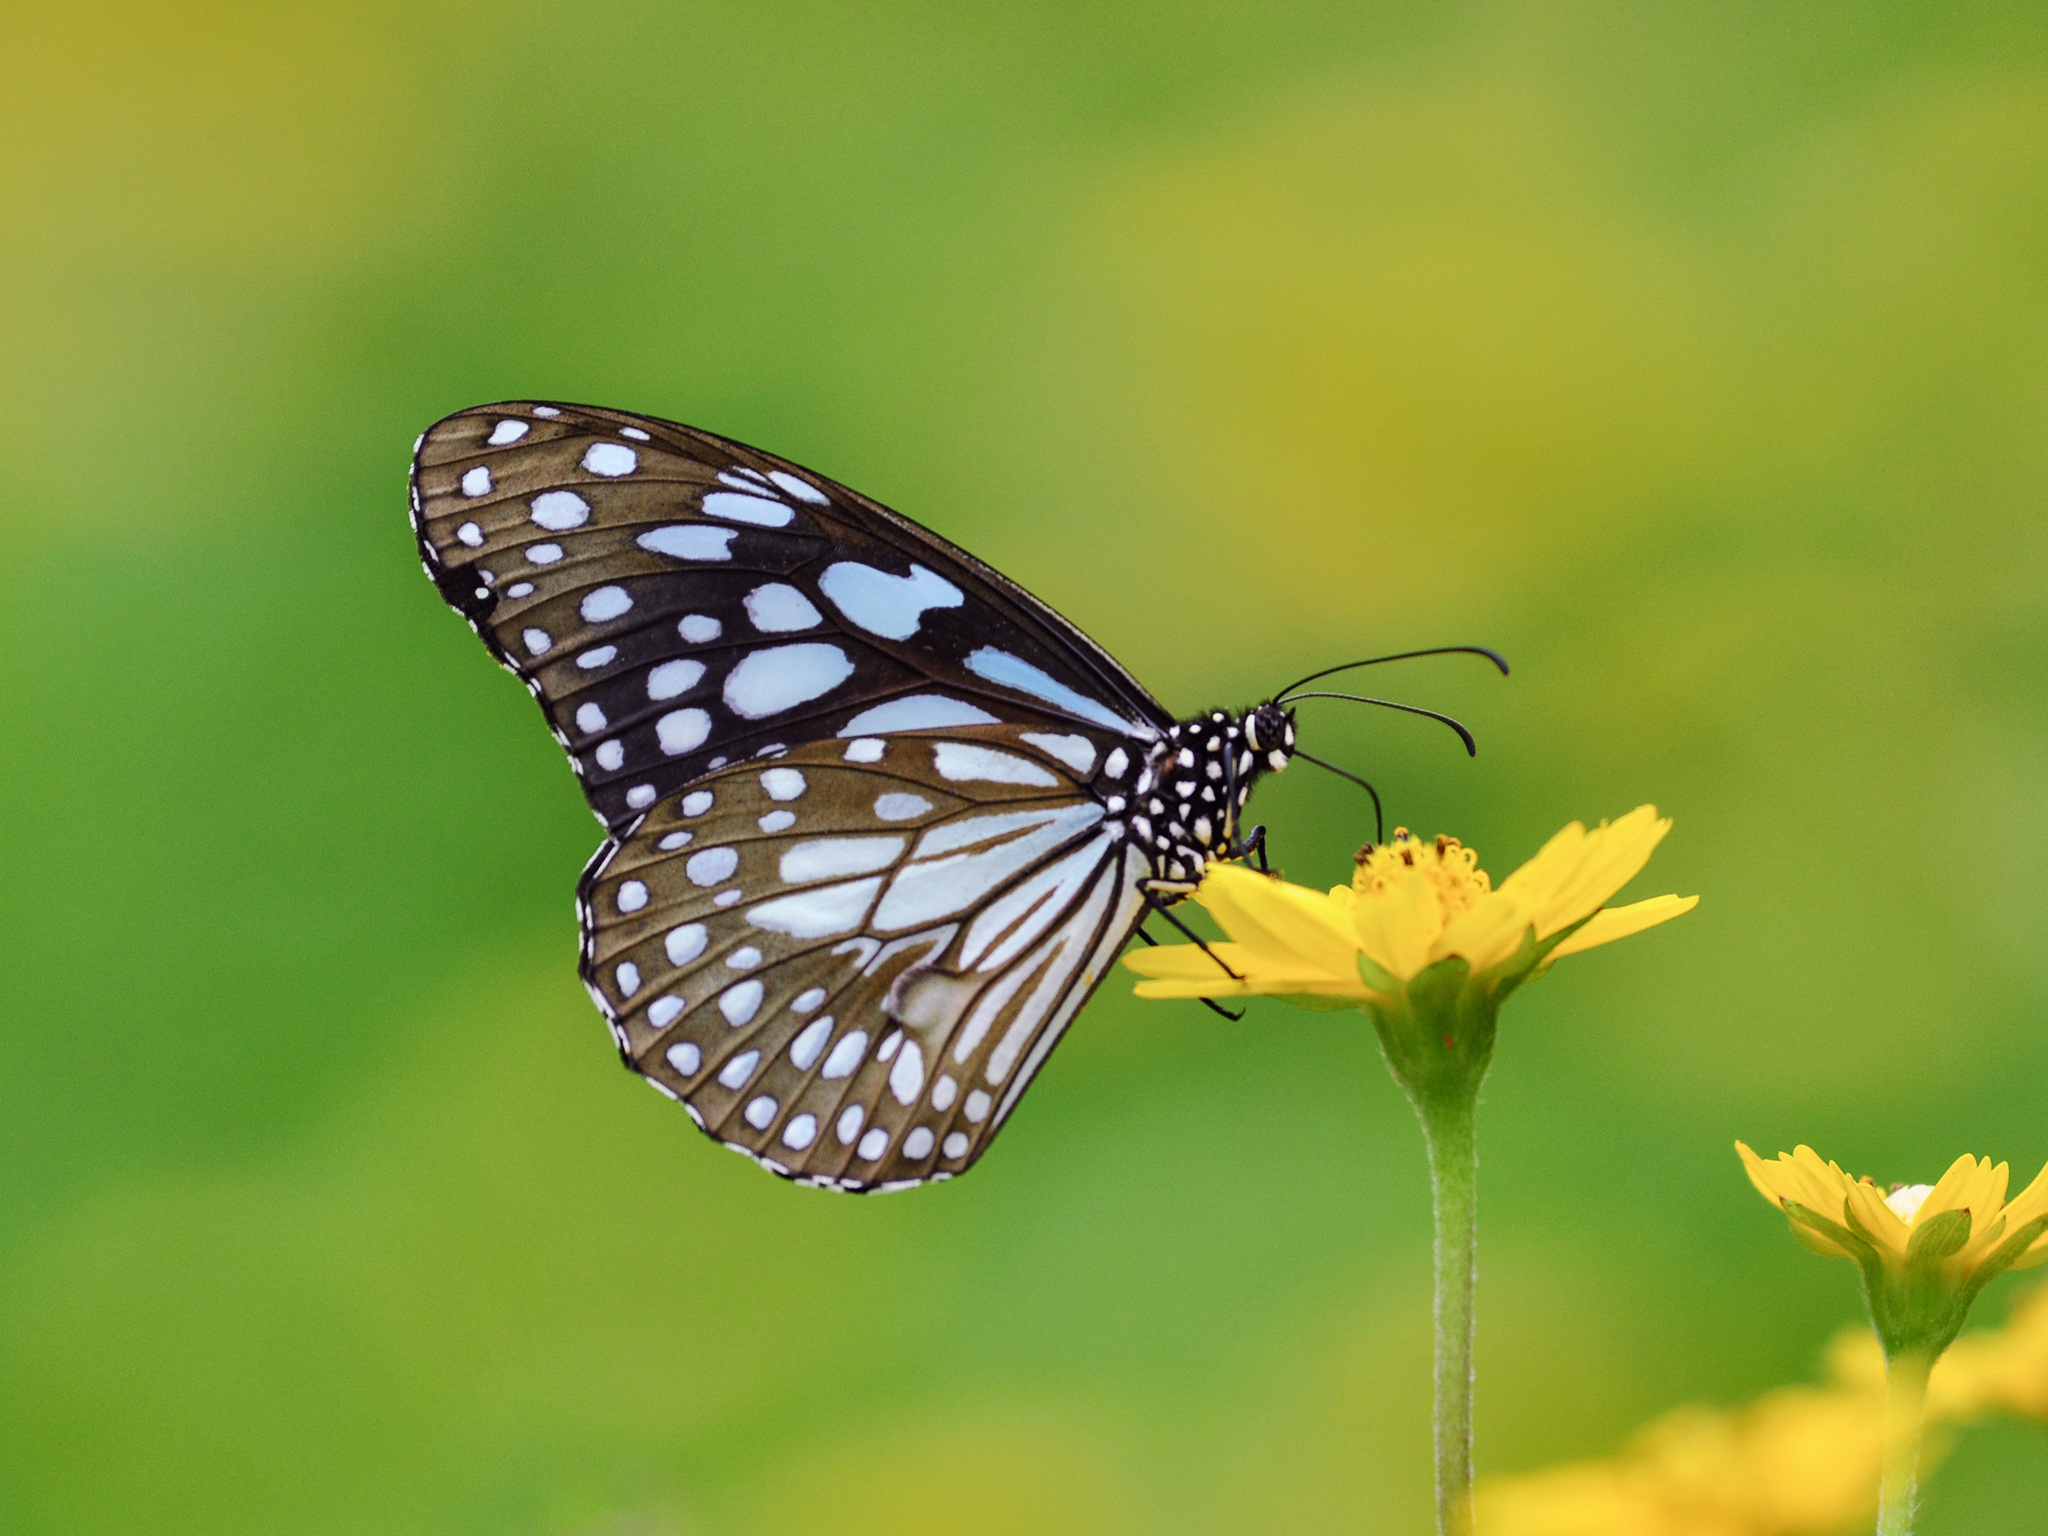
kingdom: Animalia
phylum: Arthropoda
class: Insecta
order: Lepidoptera
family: Nymphalidae
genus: Tirumala
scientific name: Tirumala limniace
